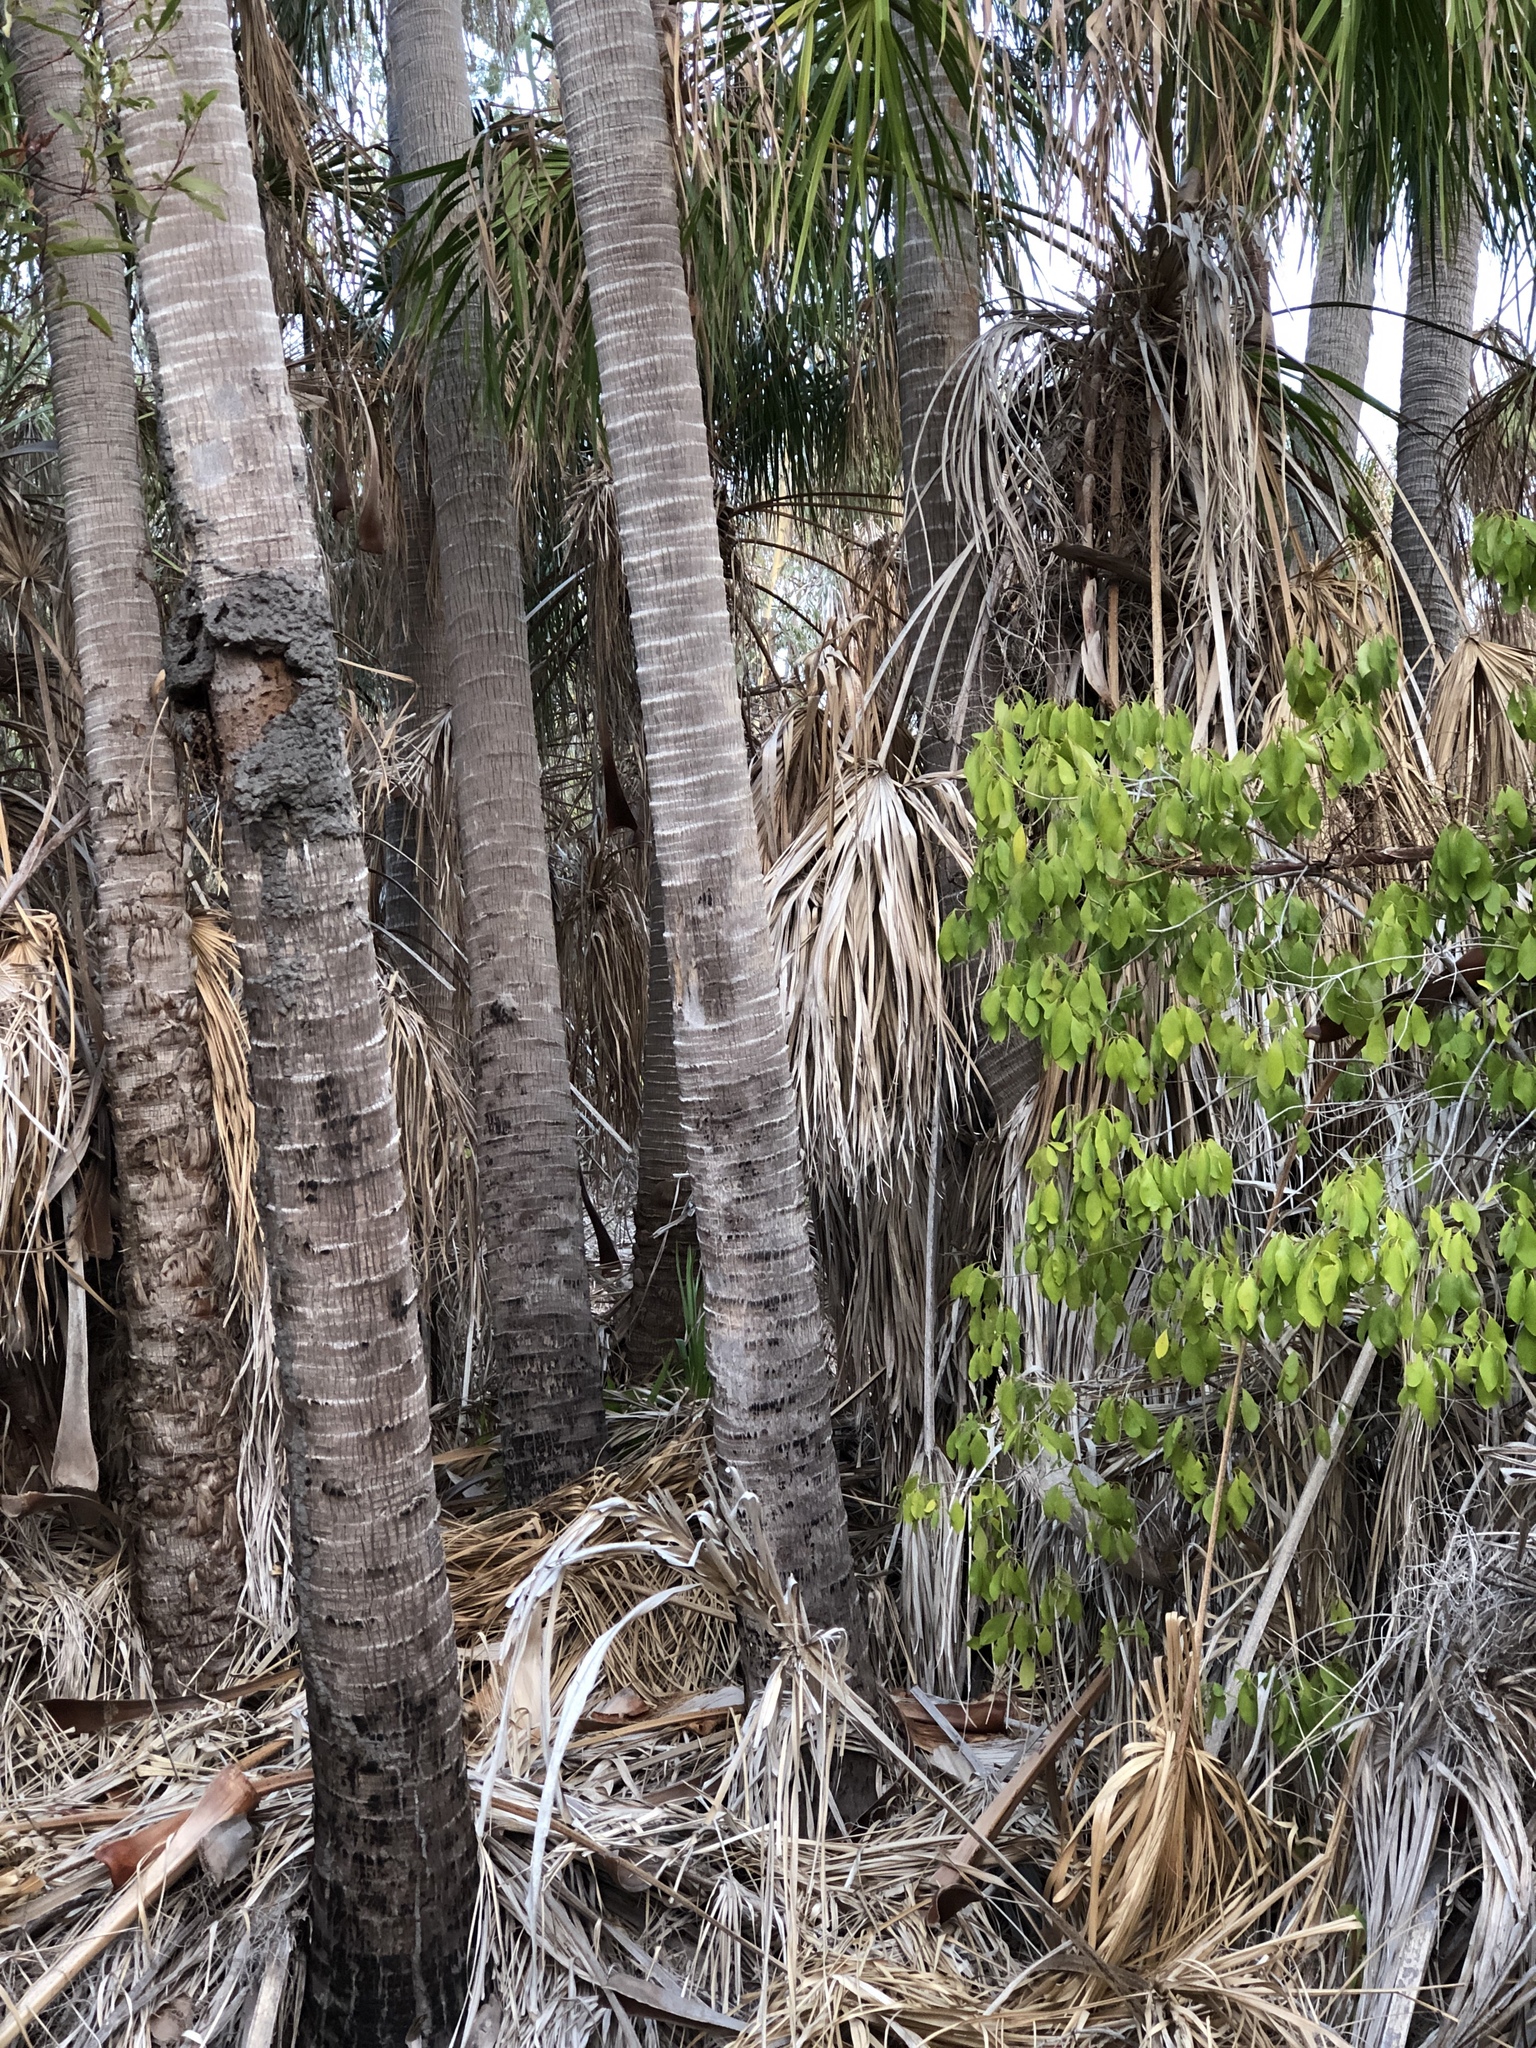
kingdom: Plantae
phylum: Tracheophyta
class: Liliopsida
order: Arecales
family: Arecaceae
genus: Livistona
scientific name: Livistona decora
